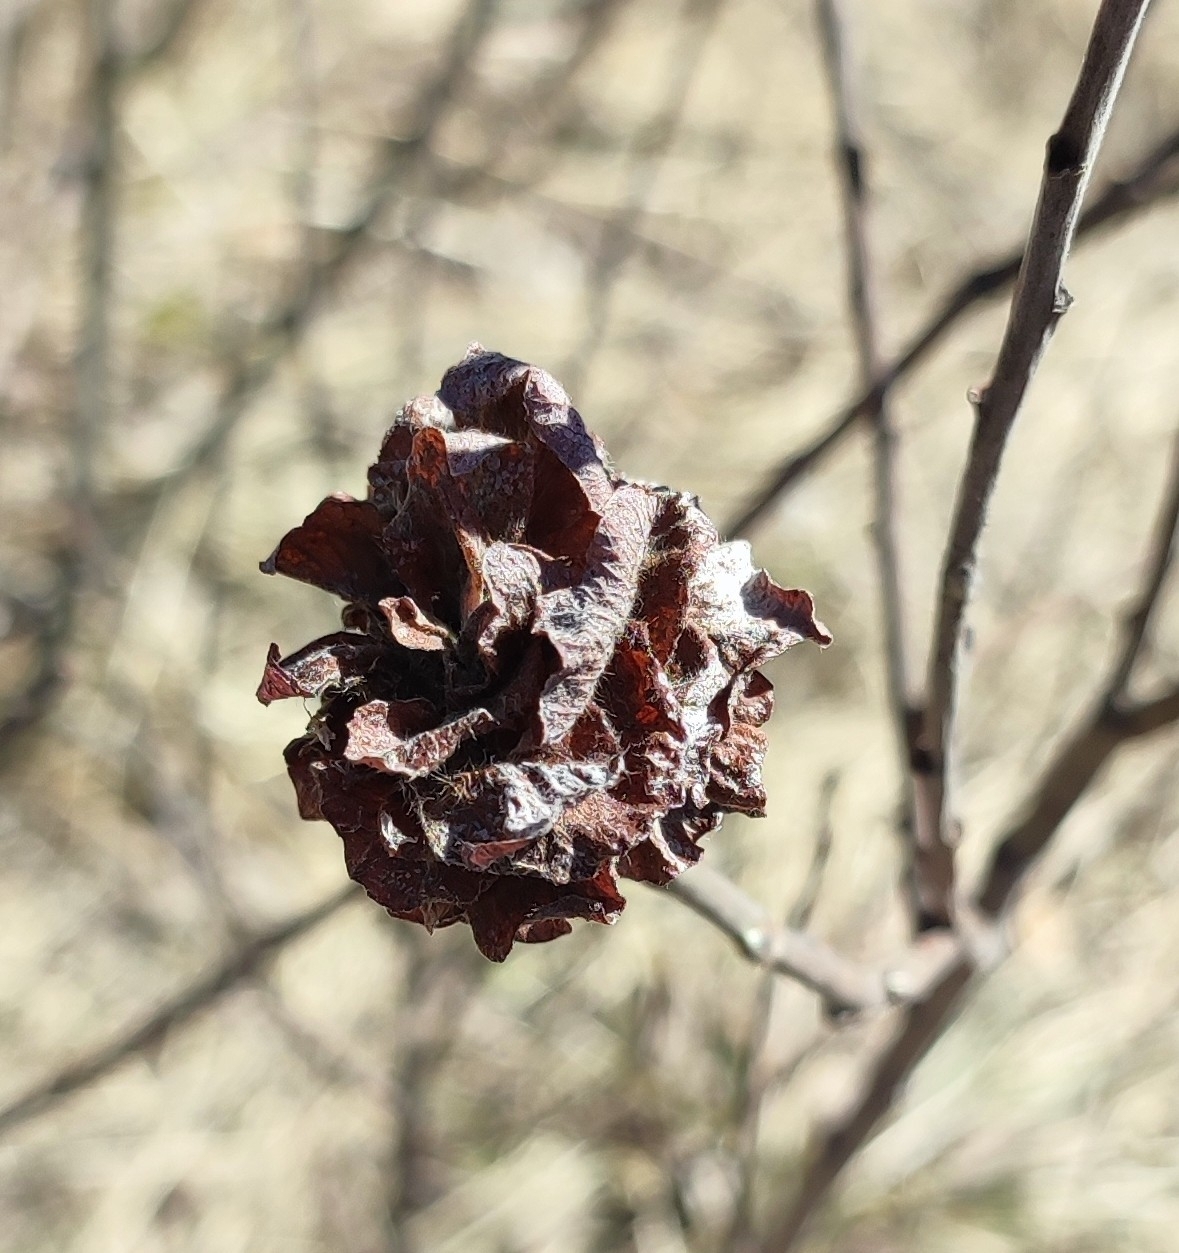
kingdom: Animalia
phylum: Arthropoda
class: Insecta
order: Diptera
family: Cecidomyiidae
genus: Rabdophaga
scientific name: Rabdophaga rosaria
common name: Willow rose gall midge
